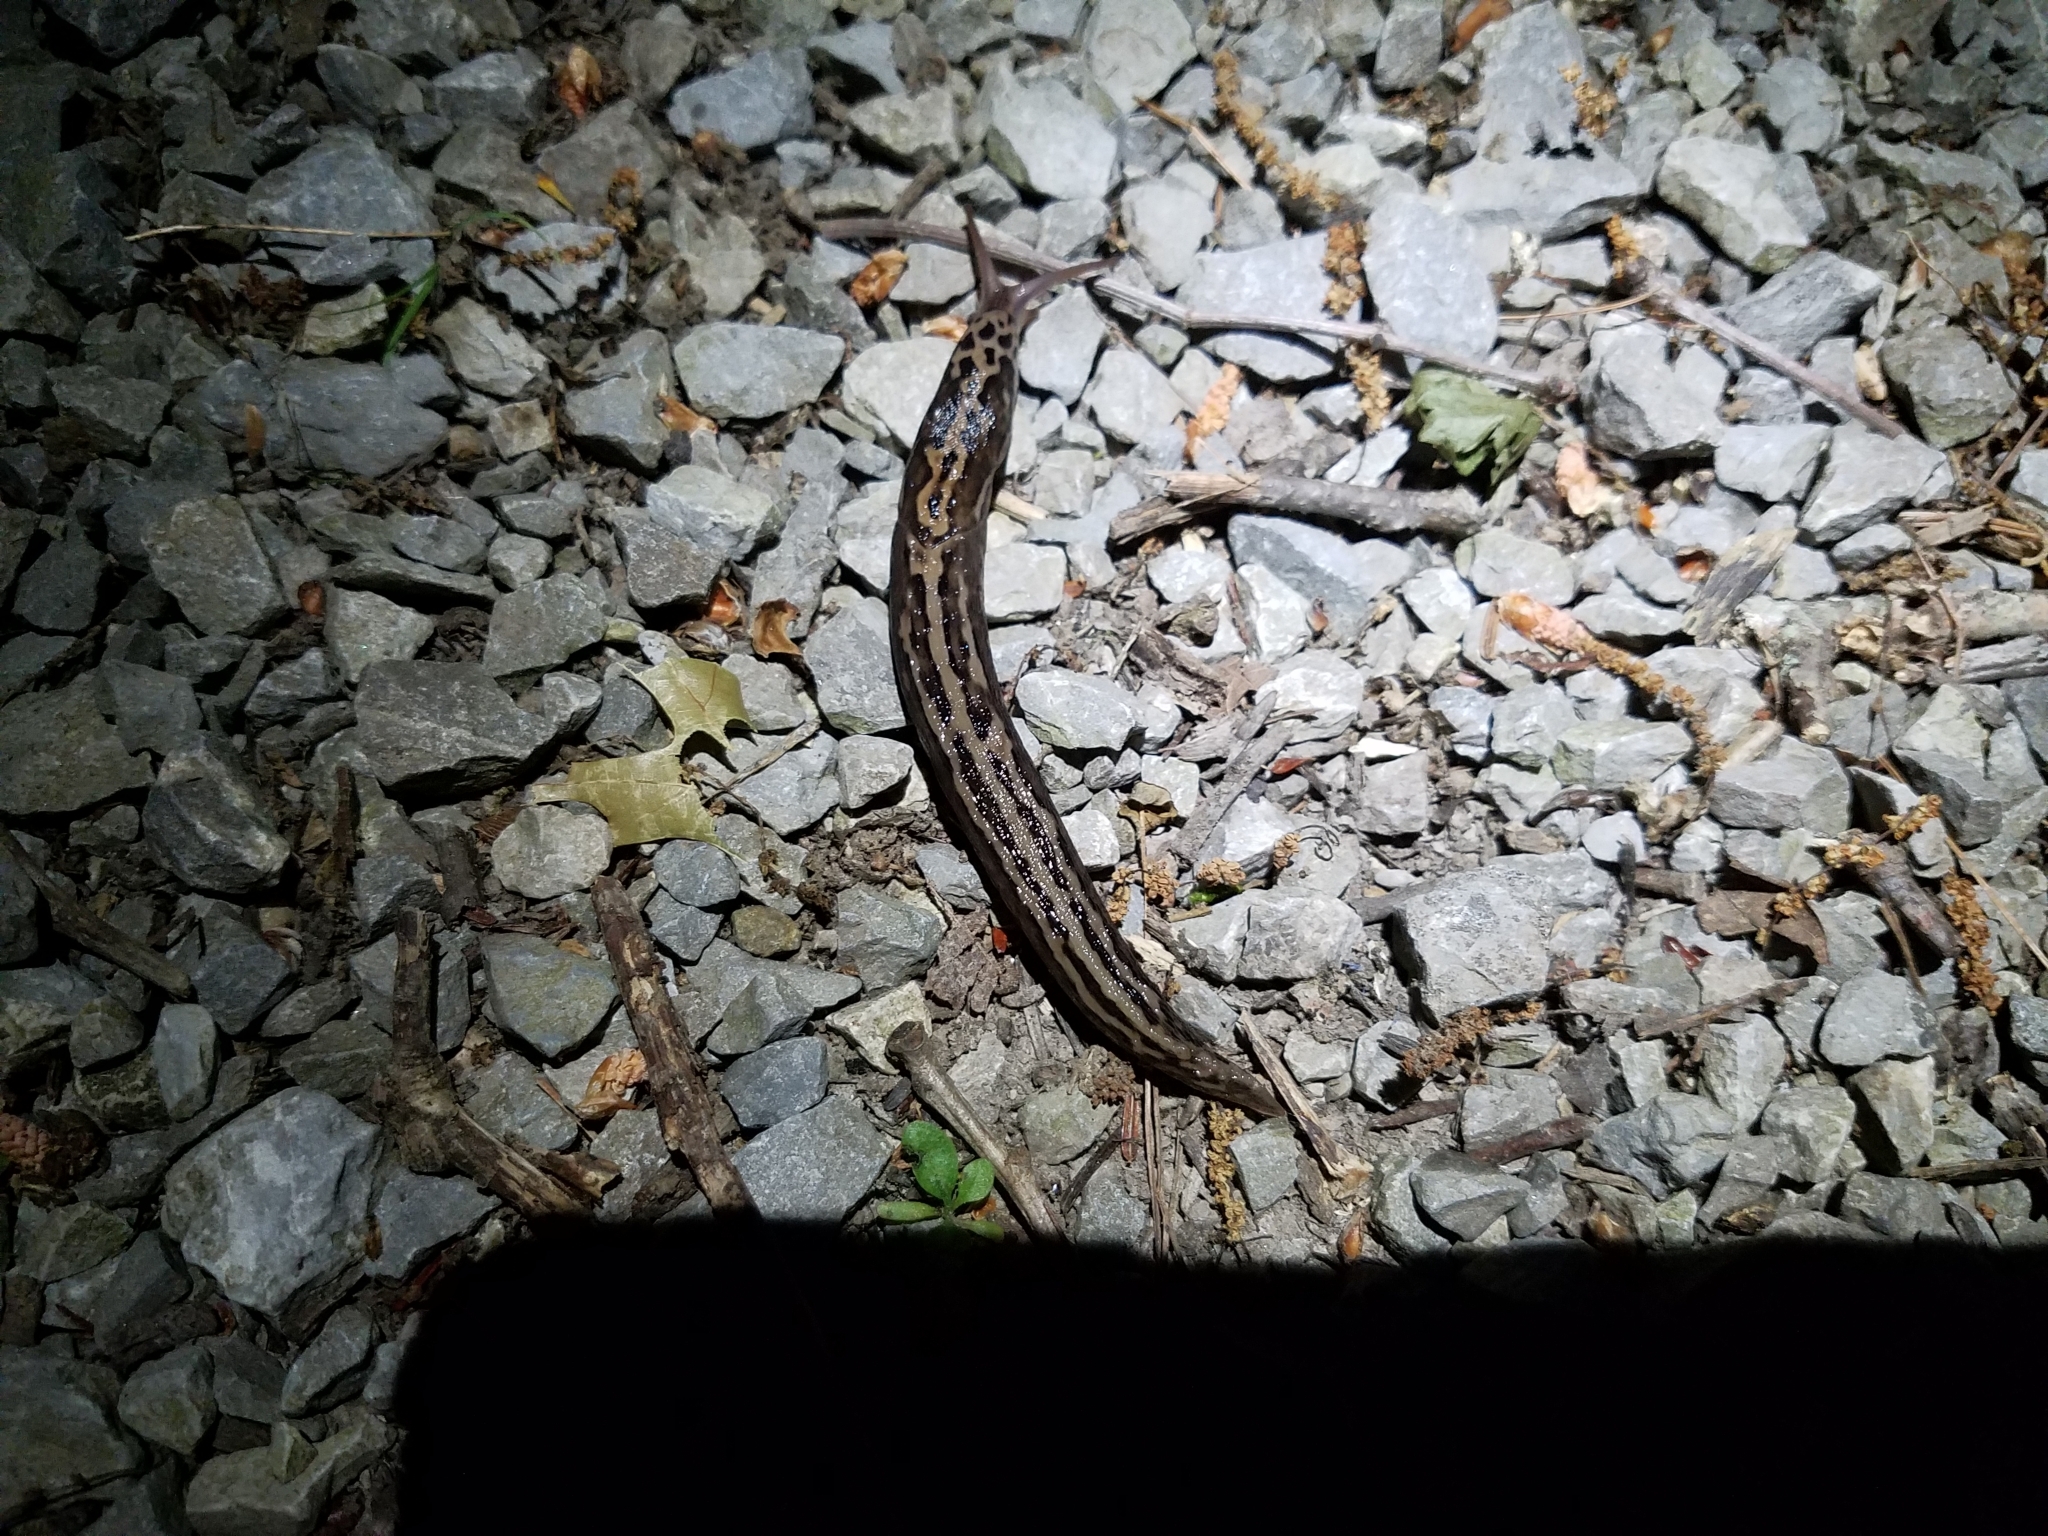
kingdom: Animalia
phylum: Mollusca
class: Gastropoda
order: Stylommatophora
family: Limacidae
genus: Limax
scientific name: Limax maximus
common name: Great grey slug
